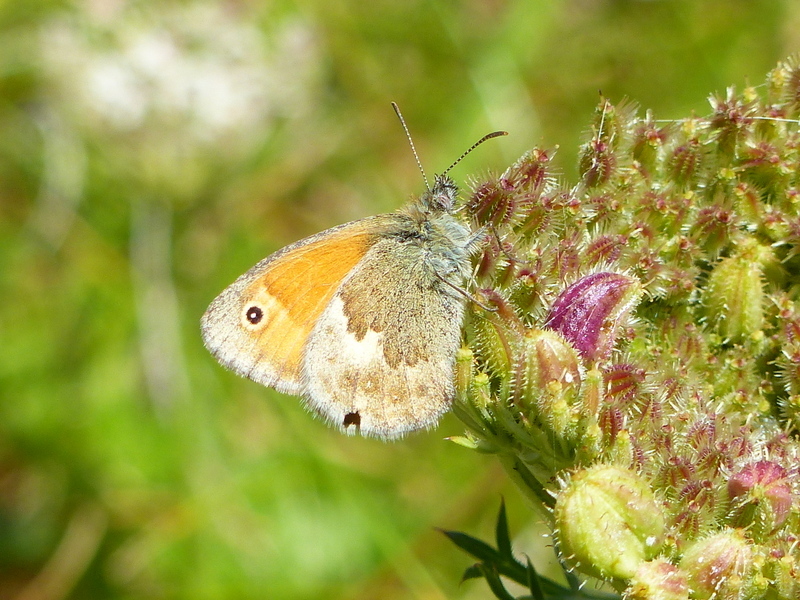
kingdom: Animalia
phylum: Arthropoda
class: Insecta
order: Lepidoptera
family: Nymphalidae
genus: Coenonympha
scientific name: Coenonympha pamphilus
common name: Small heath
